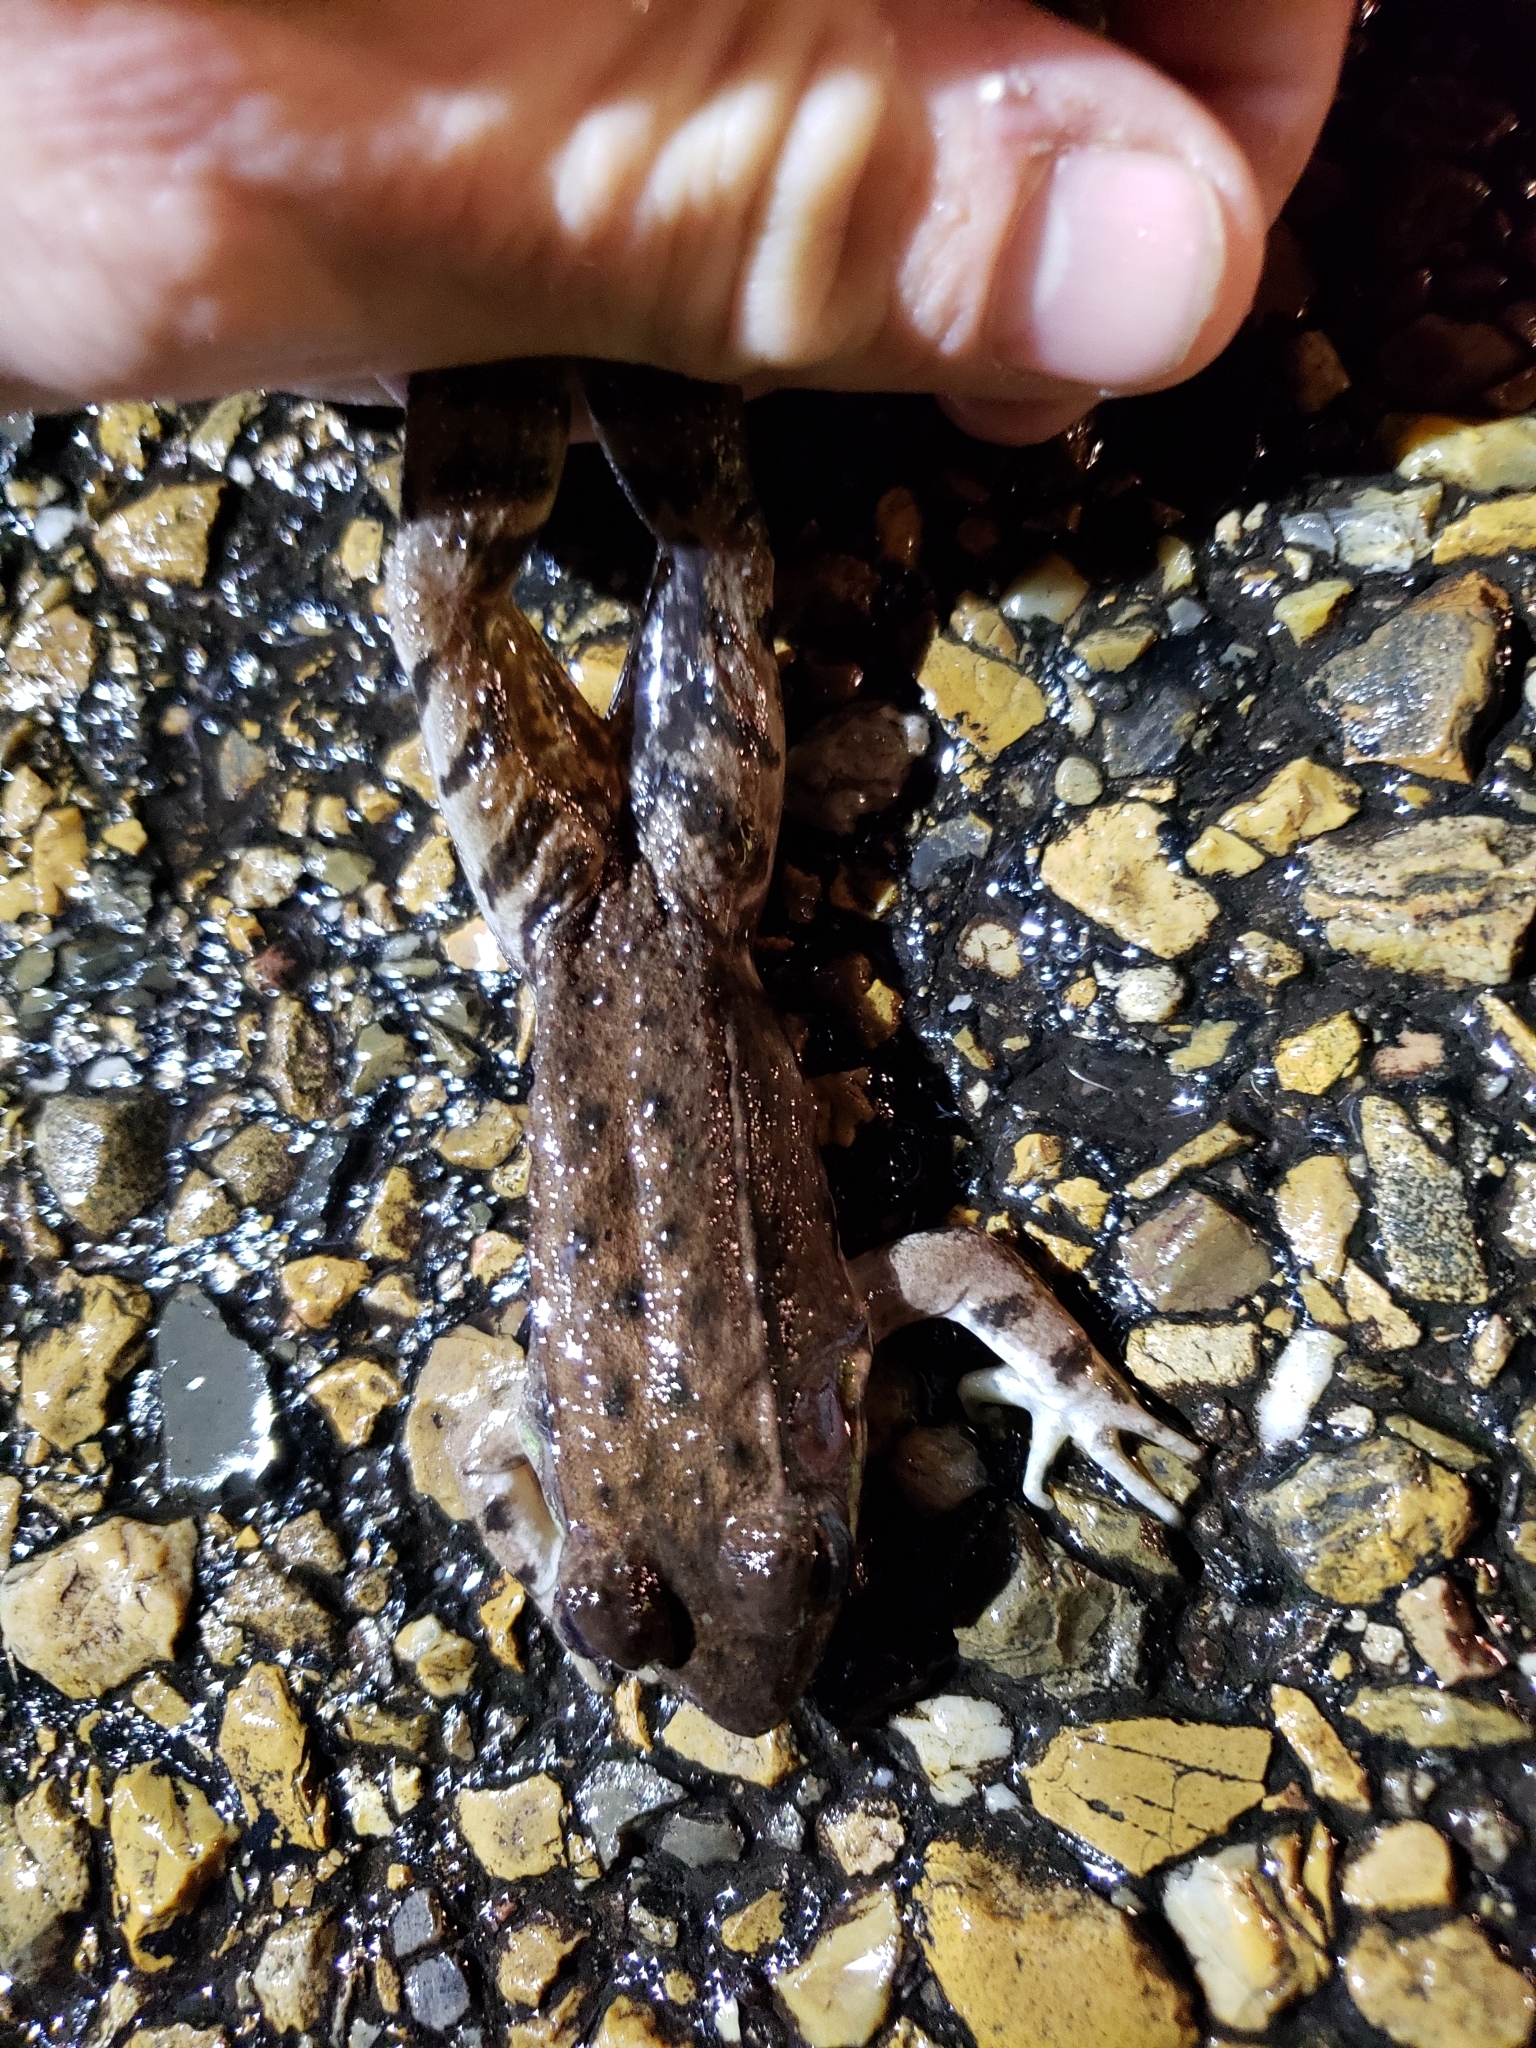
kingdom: Animalia
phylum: Chordata
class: Amphibia
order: Anura
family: Ranidae
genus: Lithobates
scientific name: Lithobates clamitans
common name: Green frog
